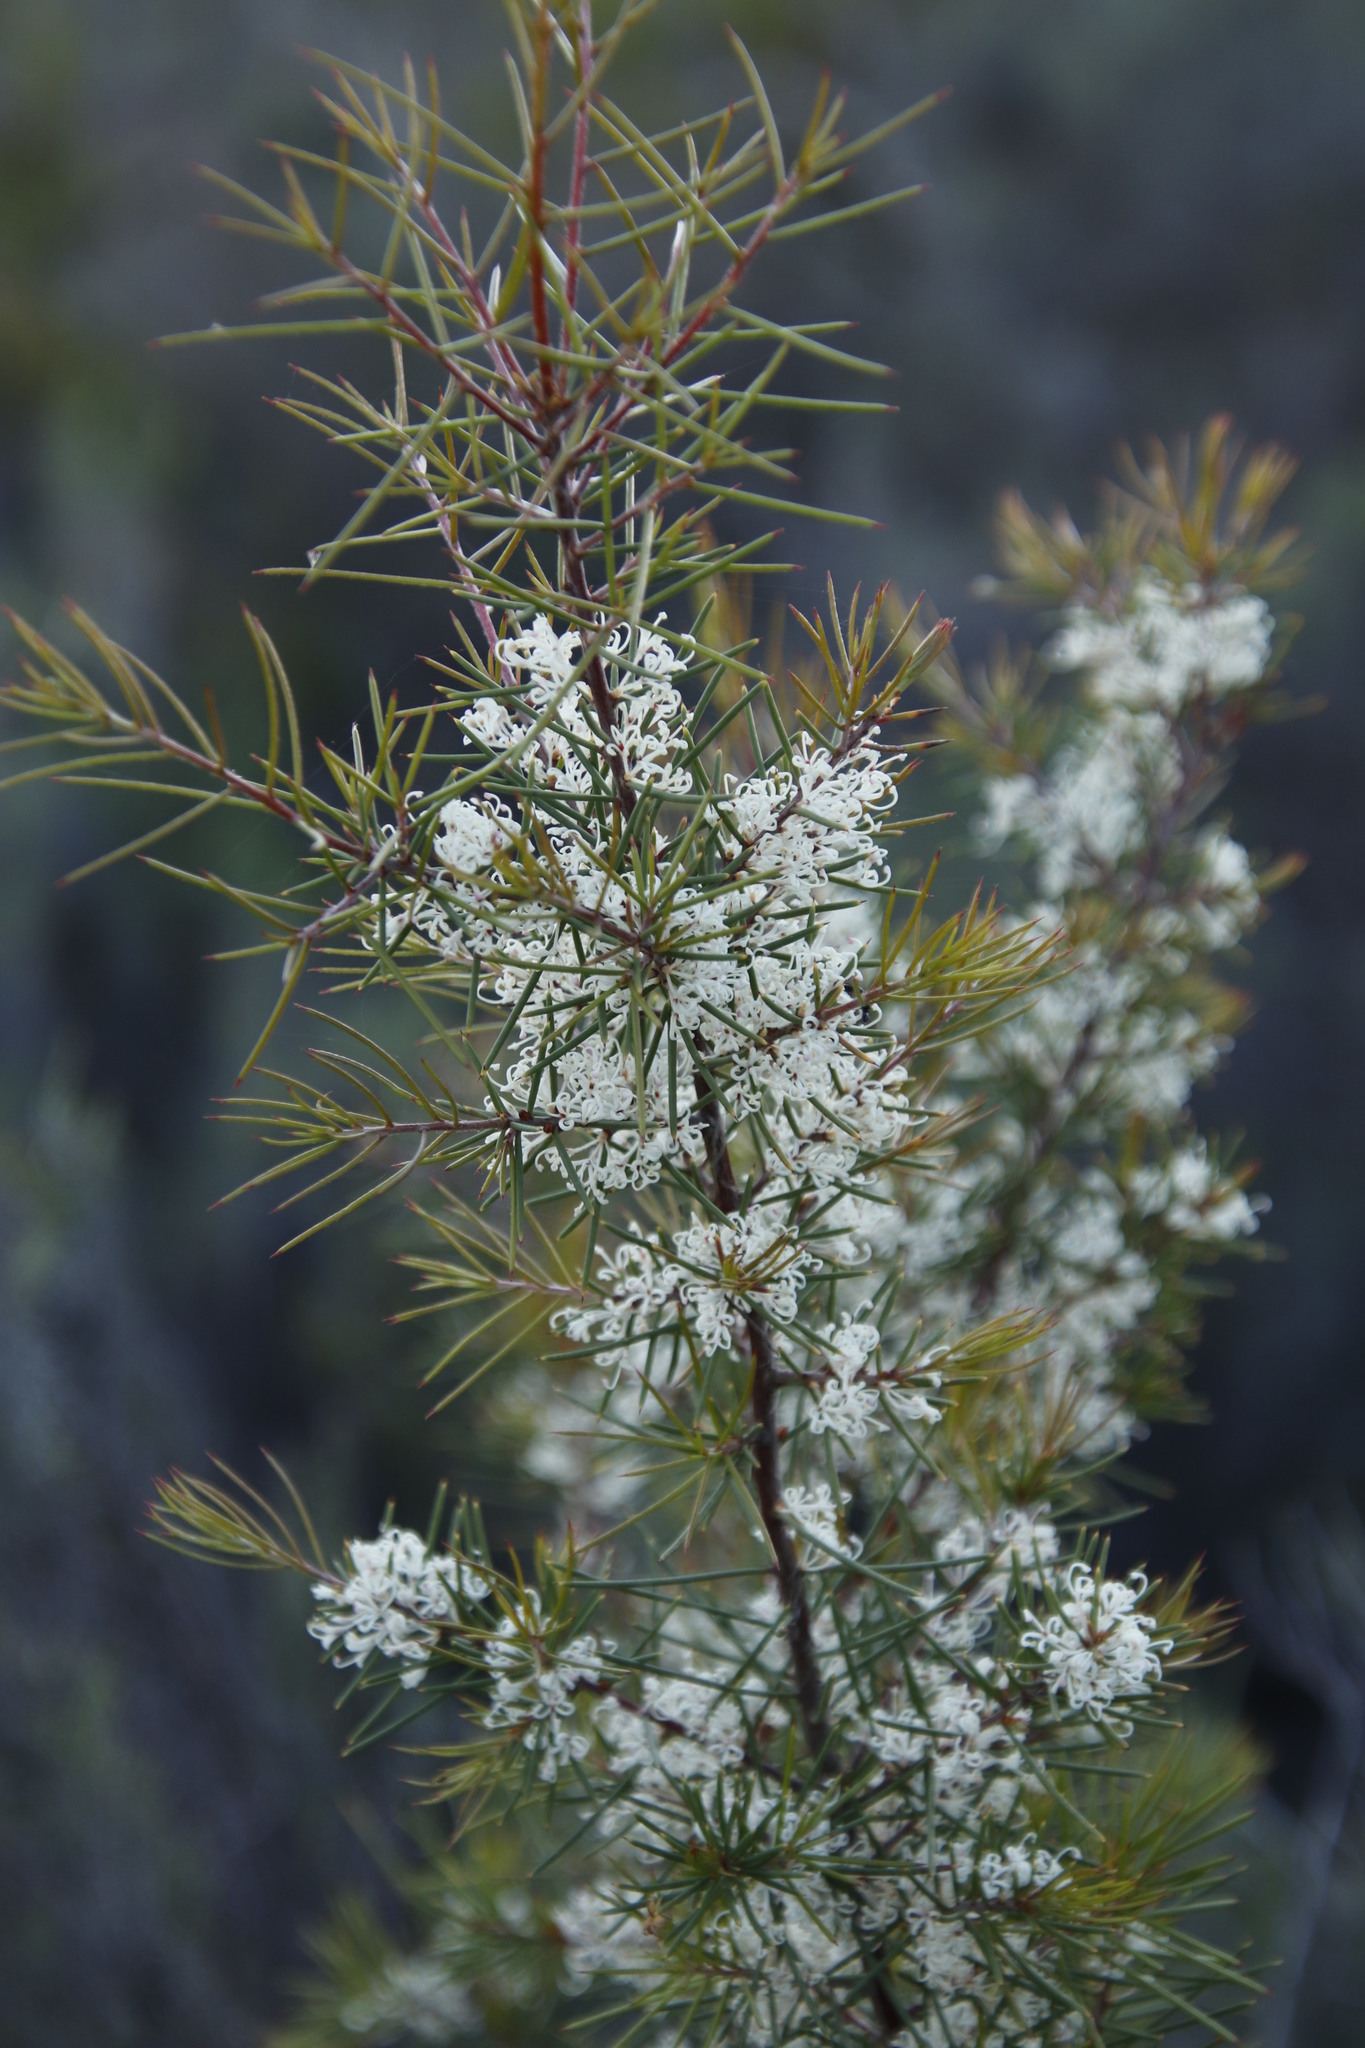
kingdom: Plantae
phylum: Tracheophyta
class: Magnoliopsida
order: Proteales
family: Proteaceae
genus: Hakea
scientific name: Hakea sericea
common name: Needle bush
